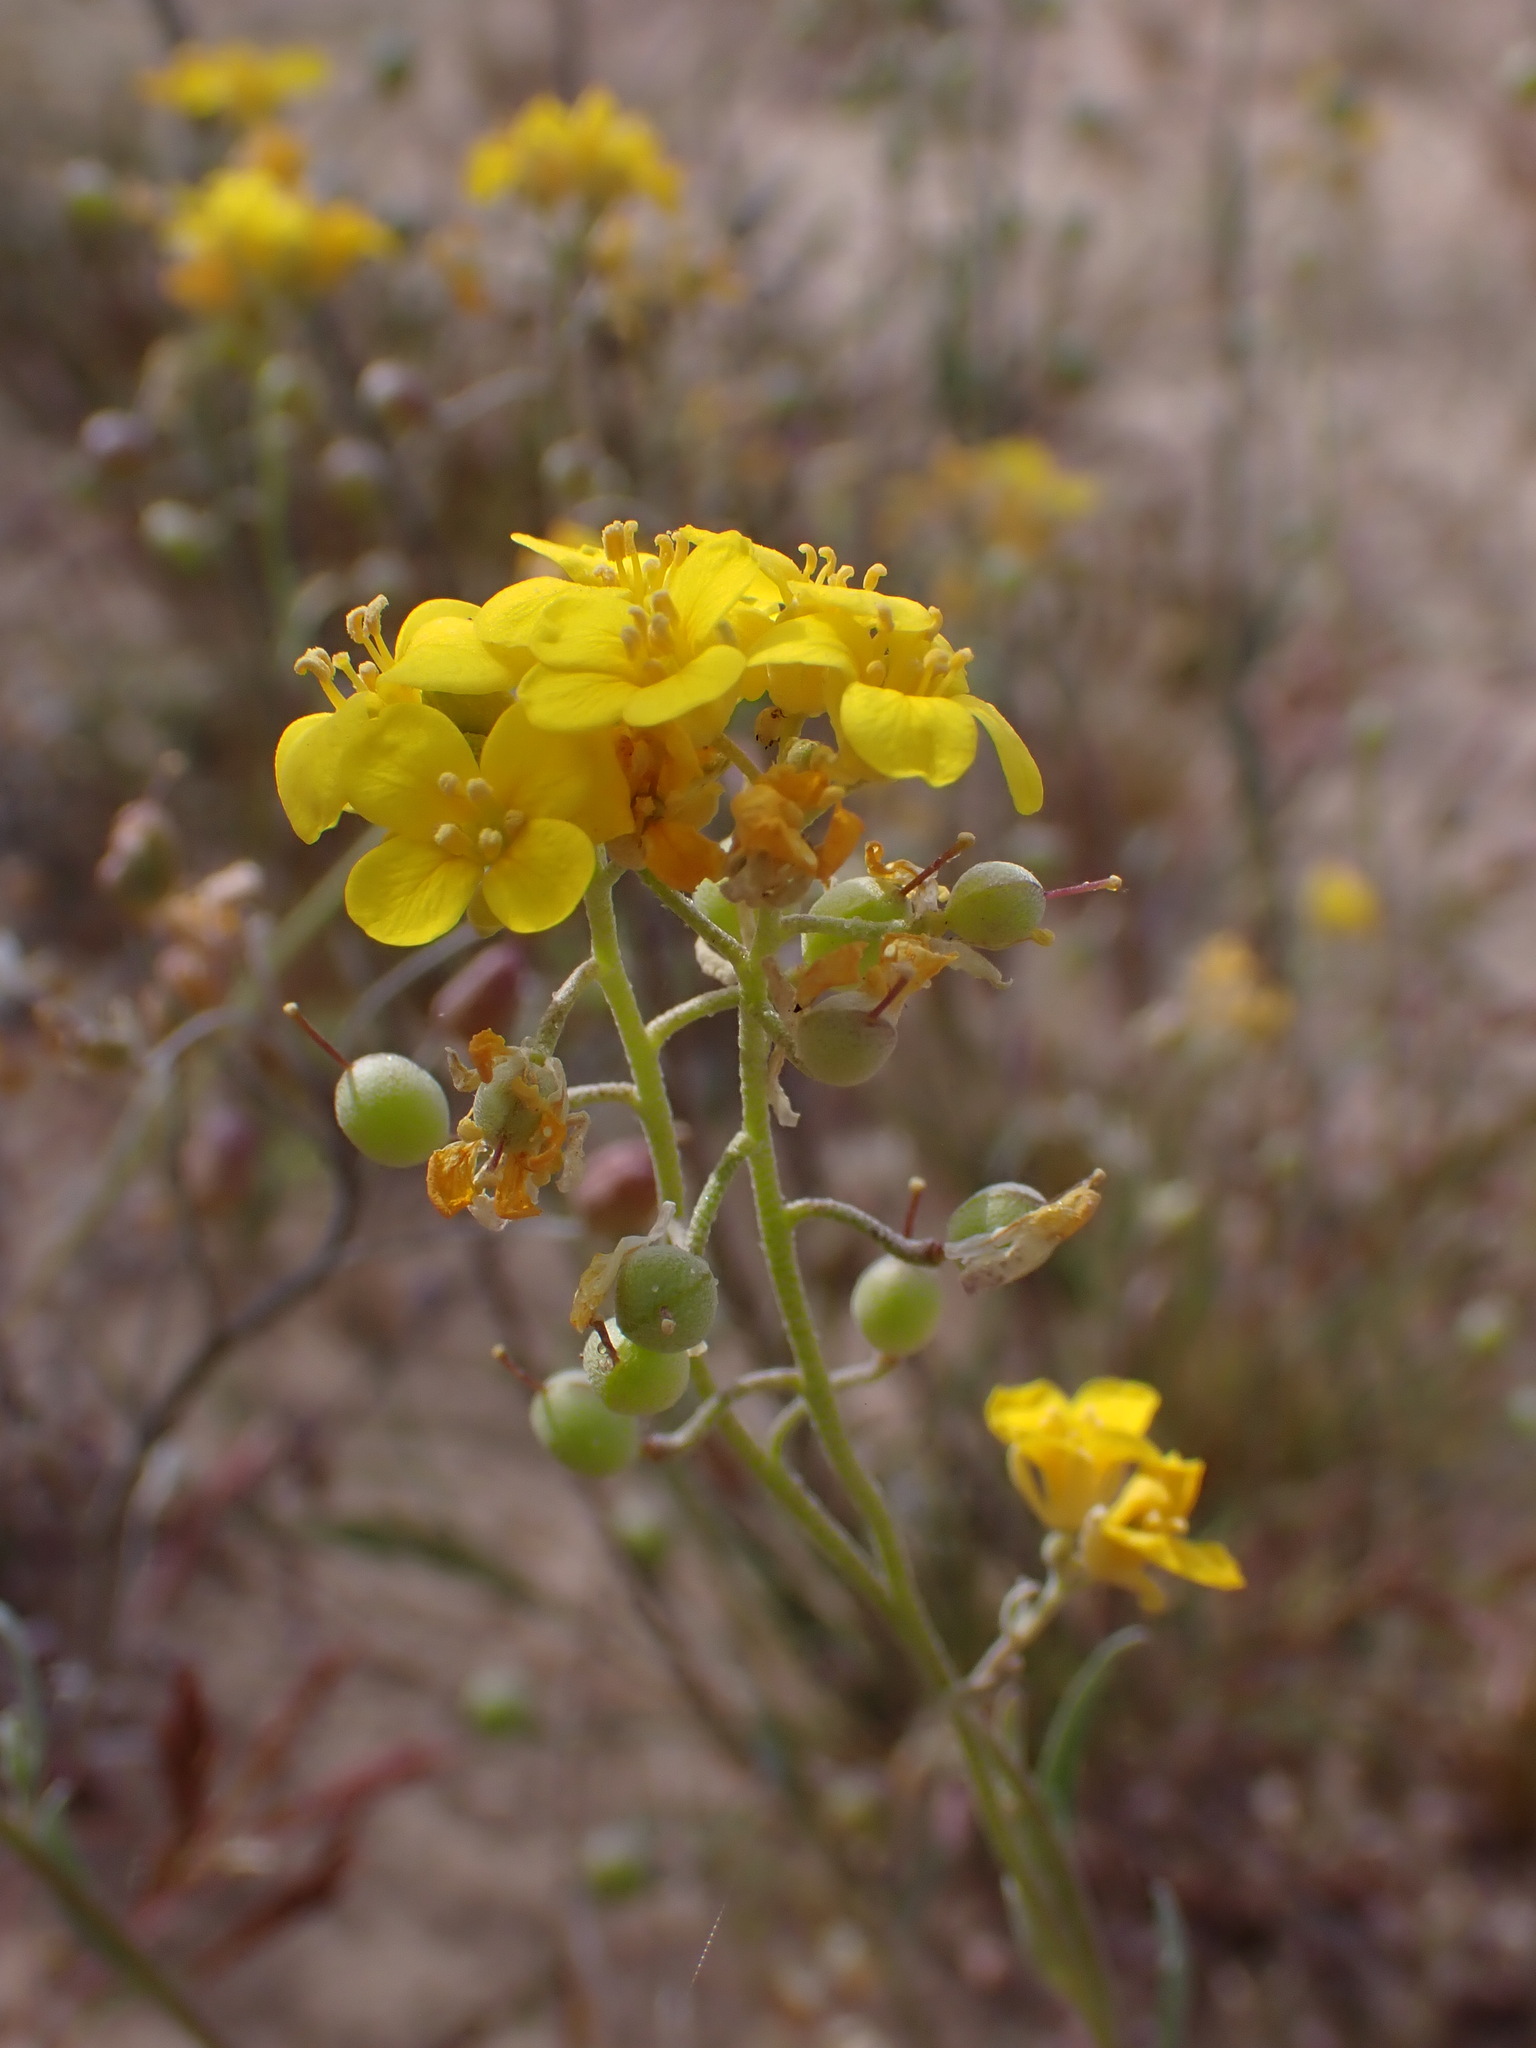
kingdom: Plantae
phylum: Tracheophyta
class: Magnoliopsida
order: Brassicales
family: Brassicaceae
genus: Physaria
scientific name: Physaria tenella
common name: Moapa bladderpod
